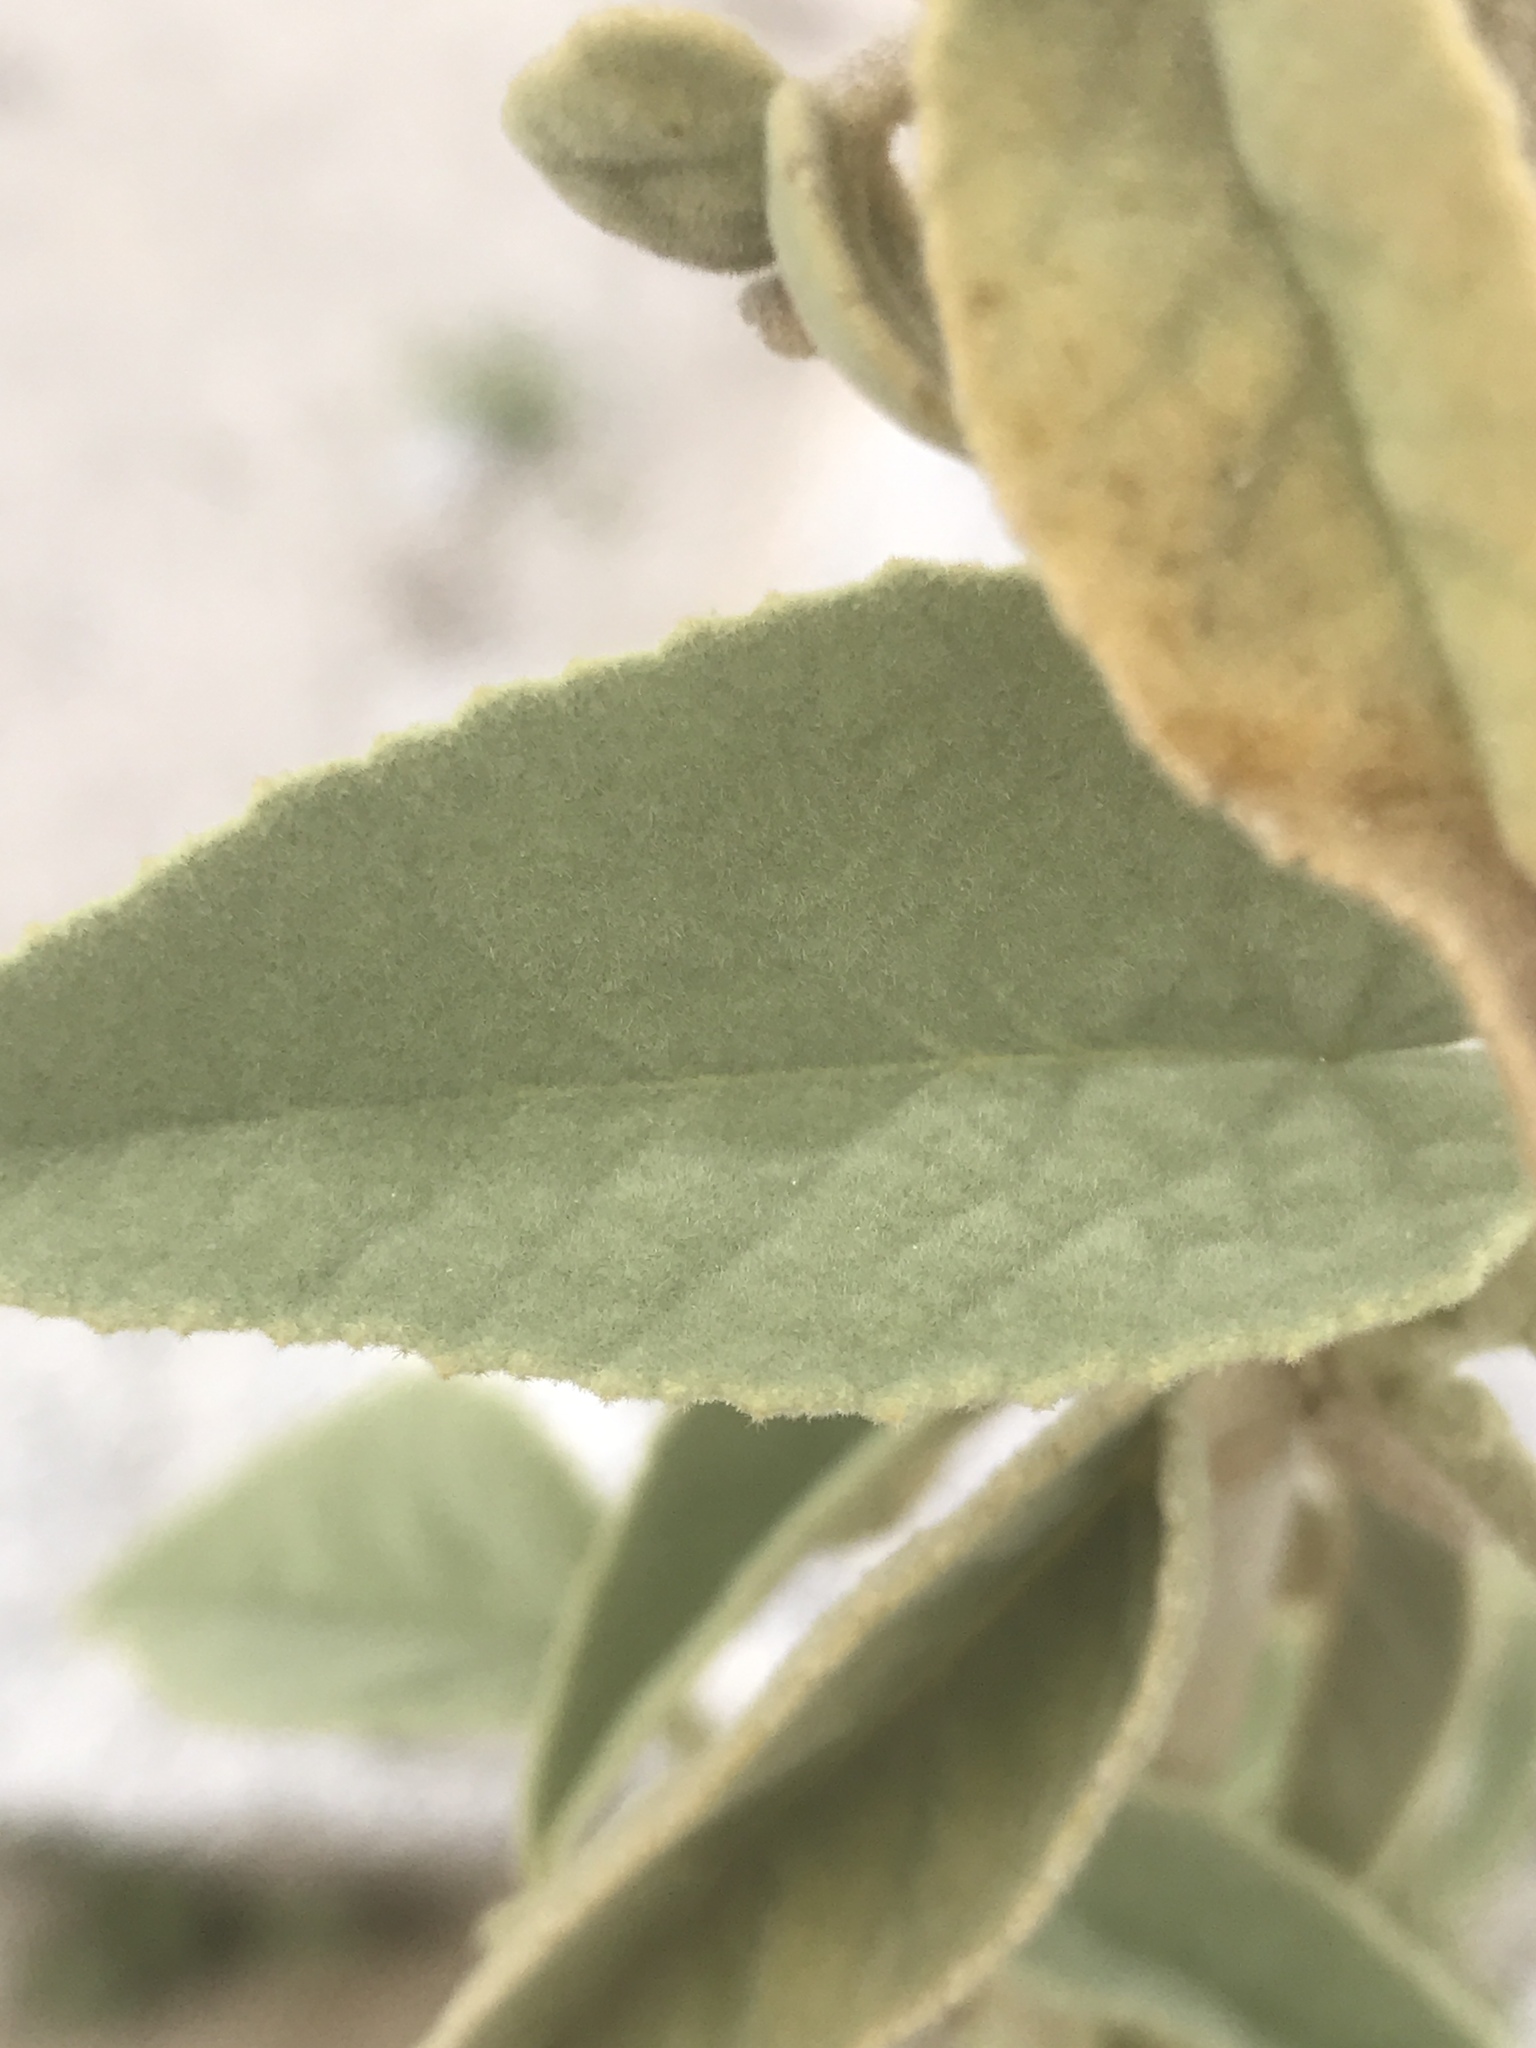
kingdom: Plantae
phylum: Tracheophyta
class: Magnoliopsida
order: Malvales
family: Malvaceae
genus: Horsfordia
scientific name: Horsfordia newberryi
